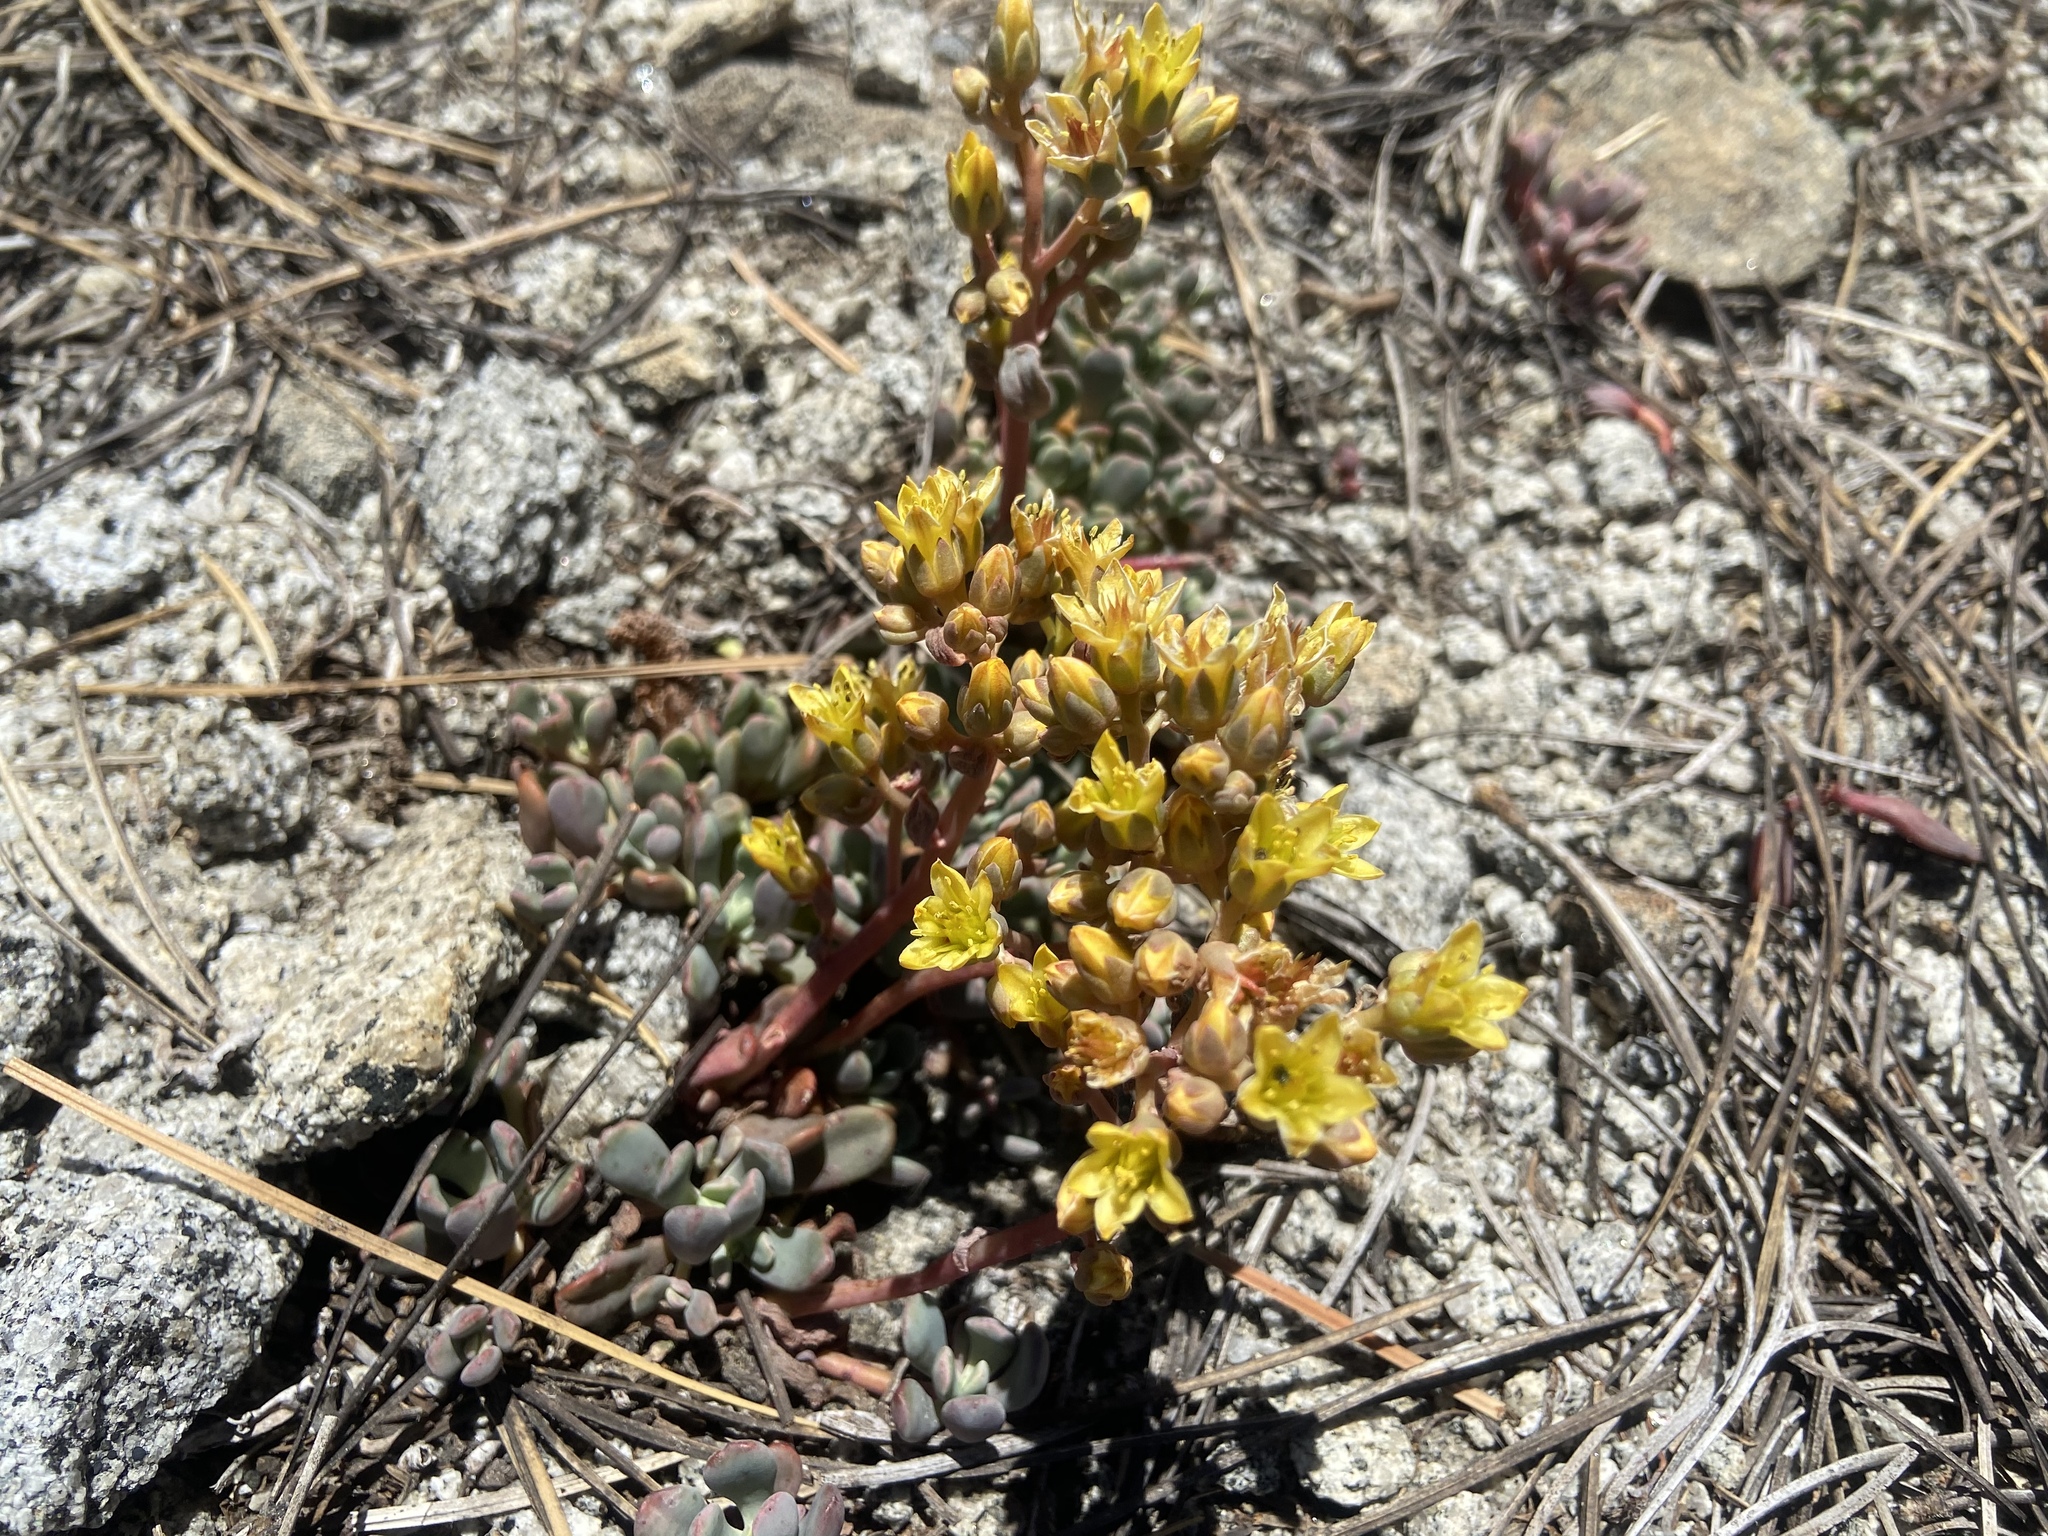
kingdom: Plantae
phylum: Tracheophyta
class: Magnoliopsida
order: Saxifragales
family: Crassulaceae
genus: Sedum
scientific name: Sedum obtusatum
